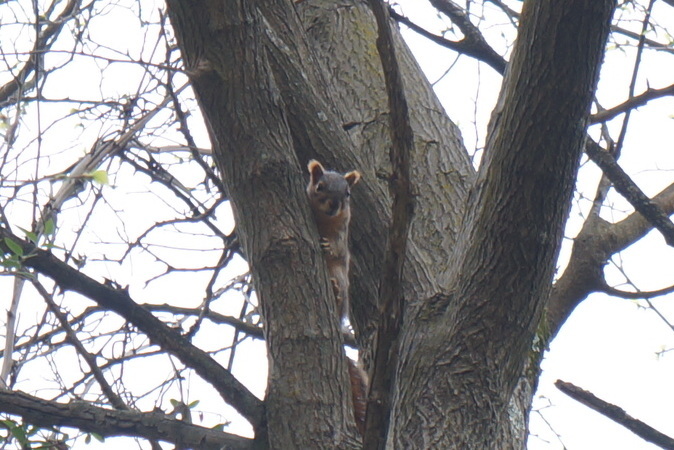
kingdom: Animalia
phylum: Chordata
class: Mammalia
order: Rodentia
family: Sciuridae
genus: Sciurus
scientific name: Sciurus niger
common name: Fox squirrel
